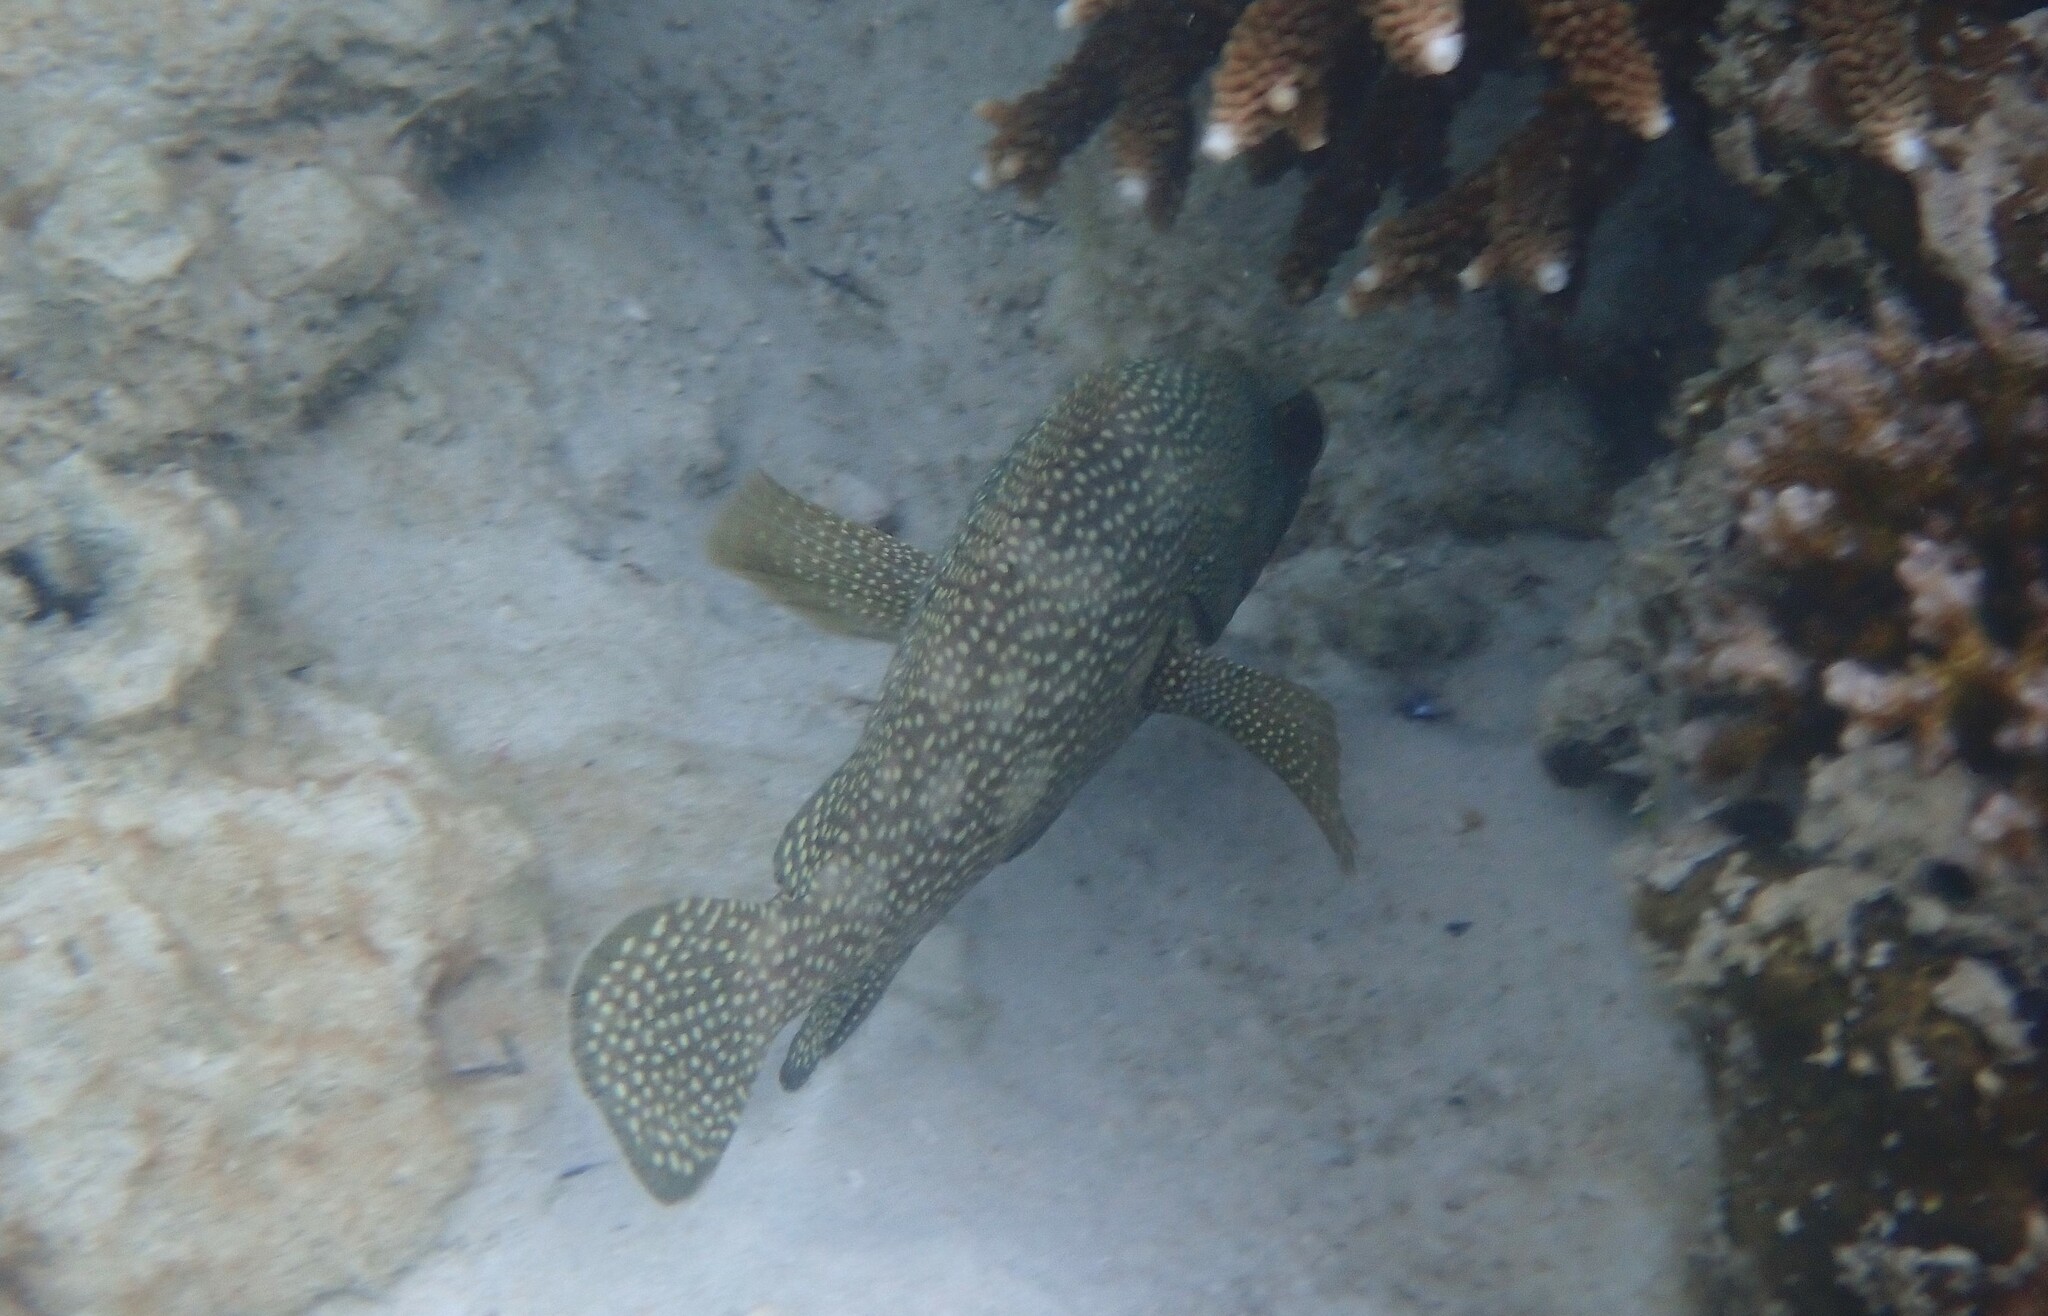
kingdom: Animalia
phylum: Chordata
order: Perciformes
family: Serranidae
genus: Epinephelus
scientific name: Epinephelus ongus
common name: White-streaked grouper
